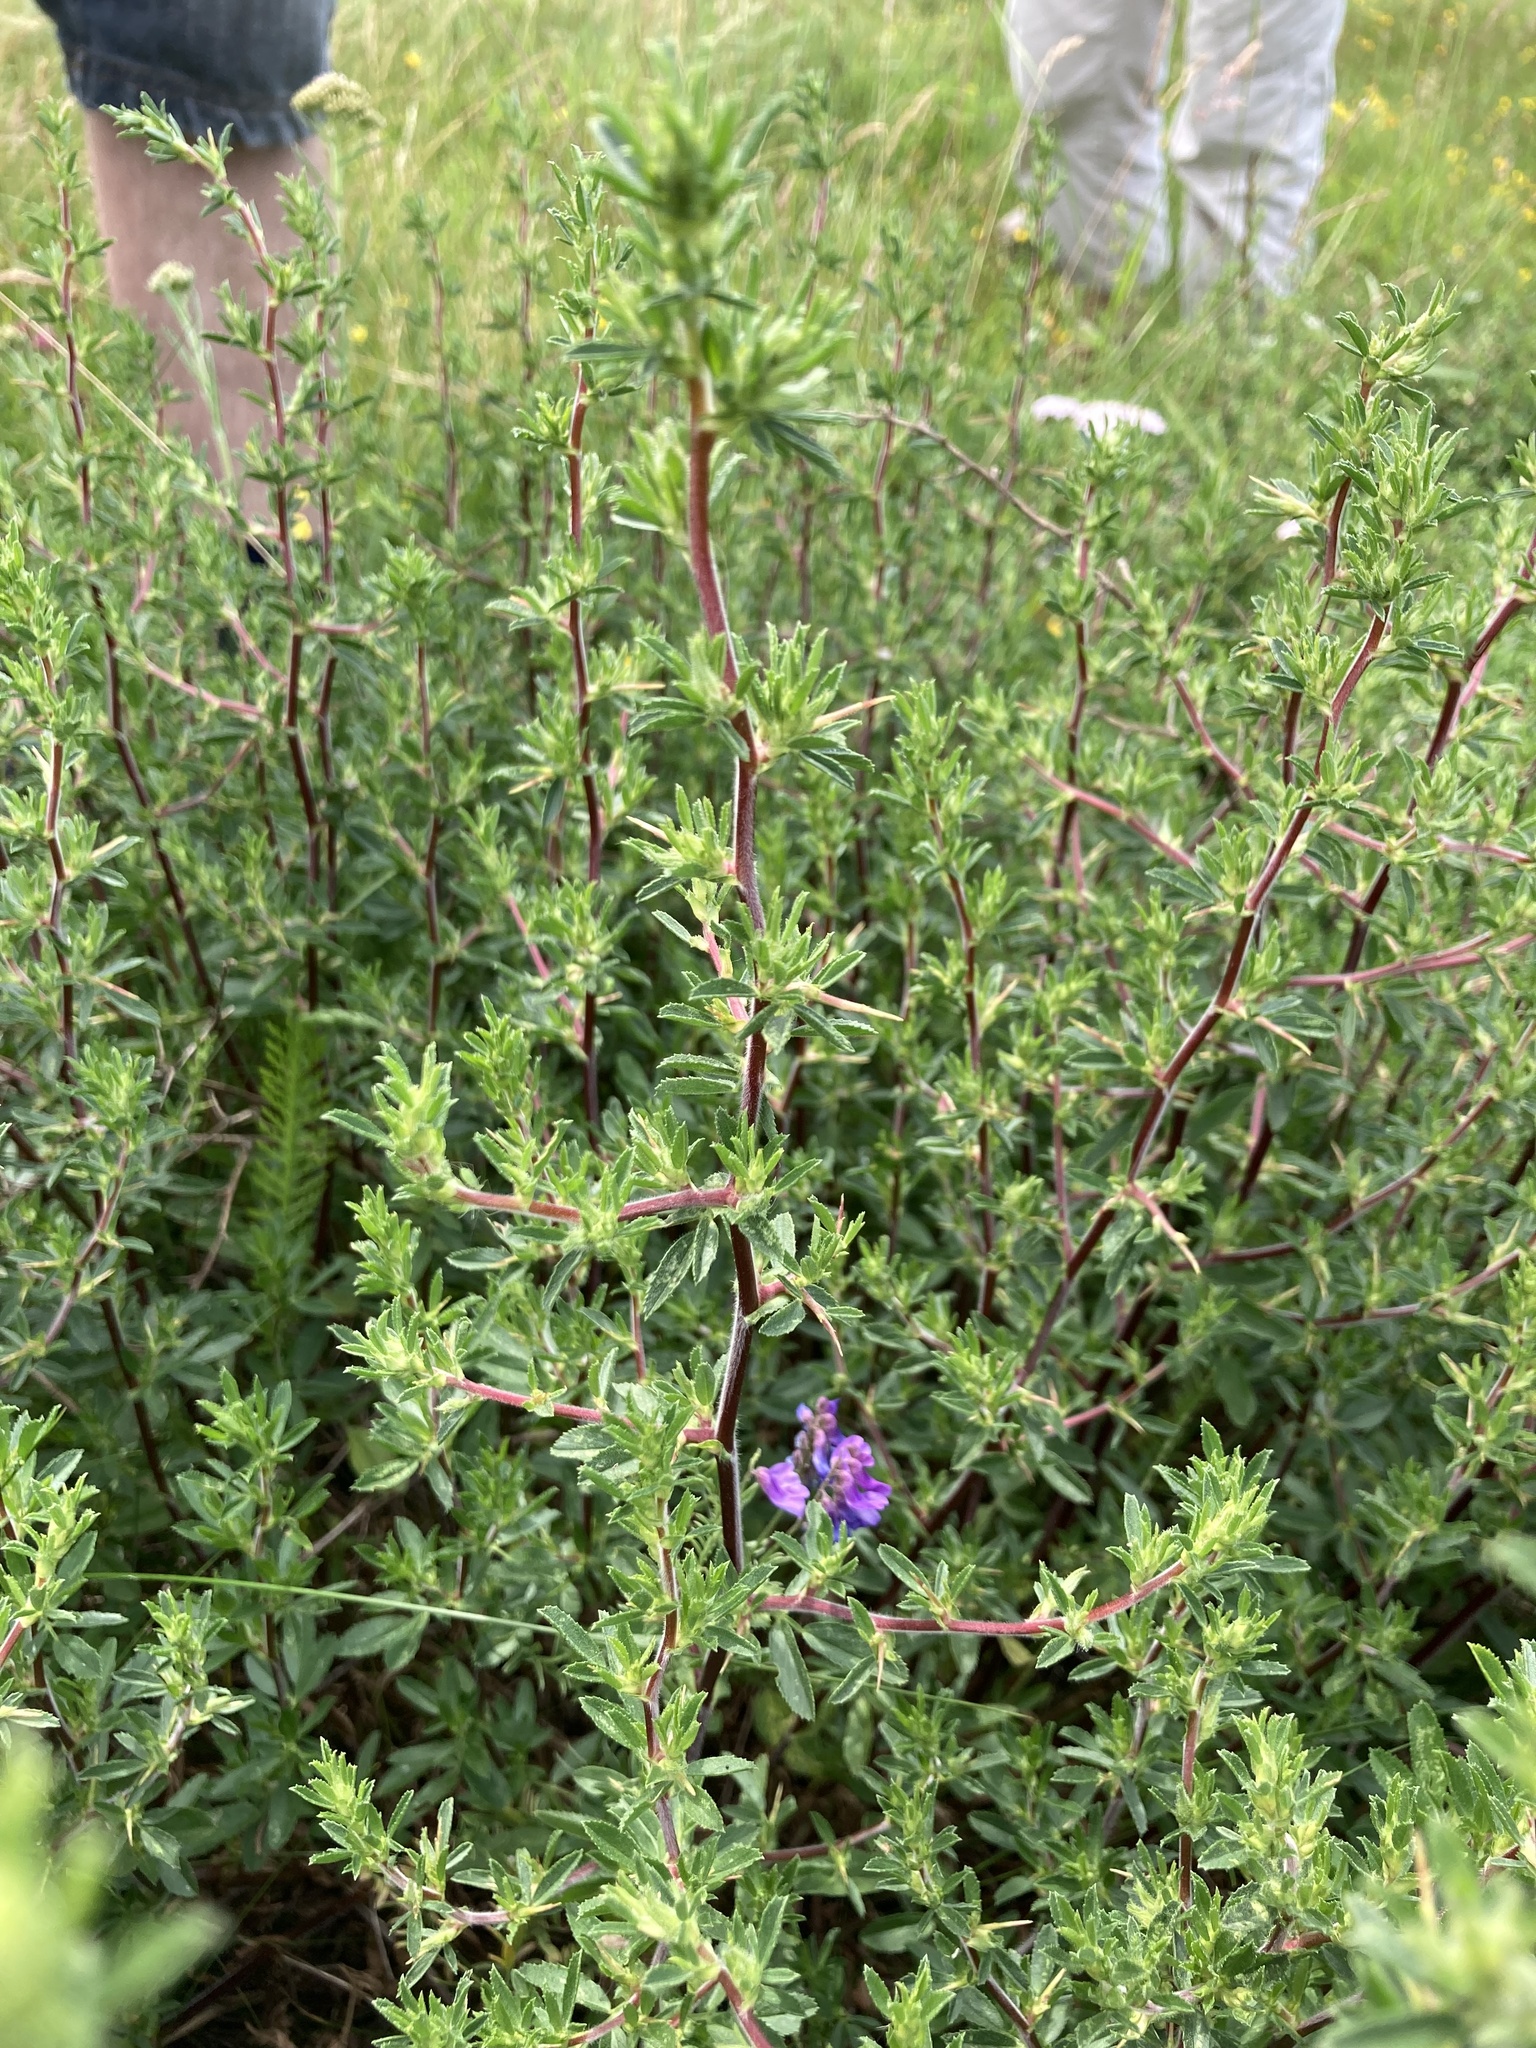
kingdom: Plantae
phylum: Tracheophyta
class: Magnoliopsida
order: Fabales
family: Fabaceae
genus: Ononis
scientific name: Ononis spinosa
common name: Spiny restharrow
